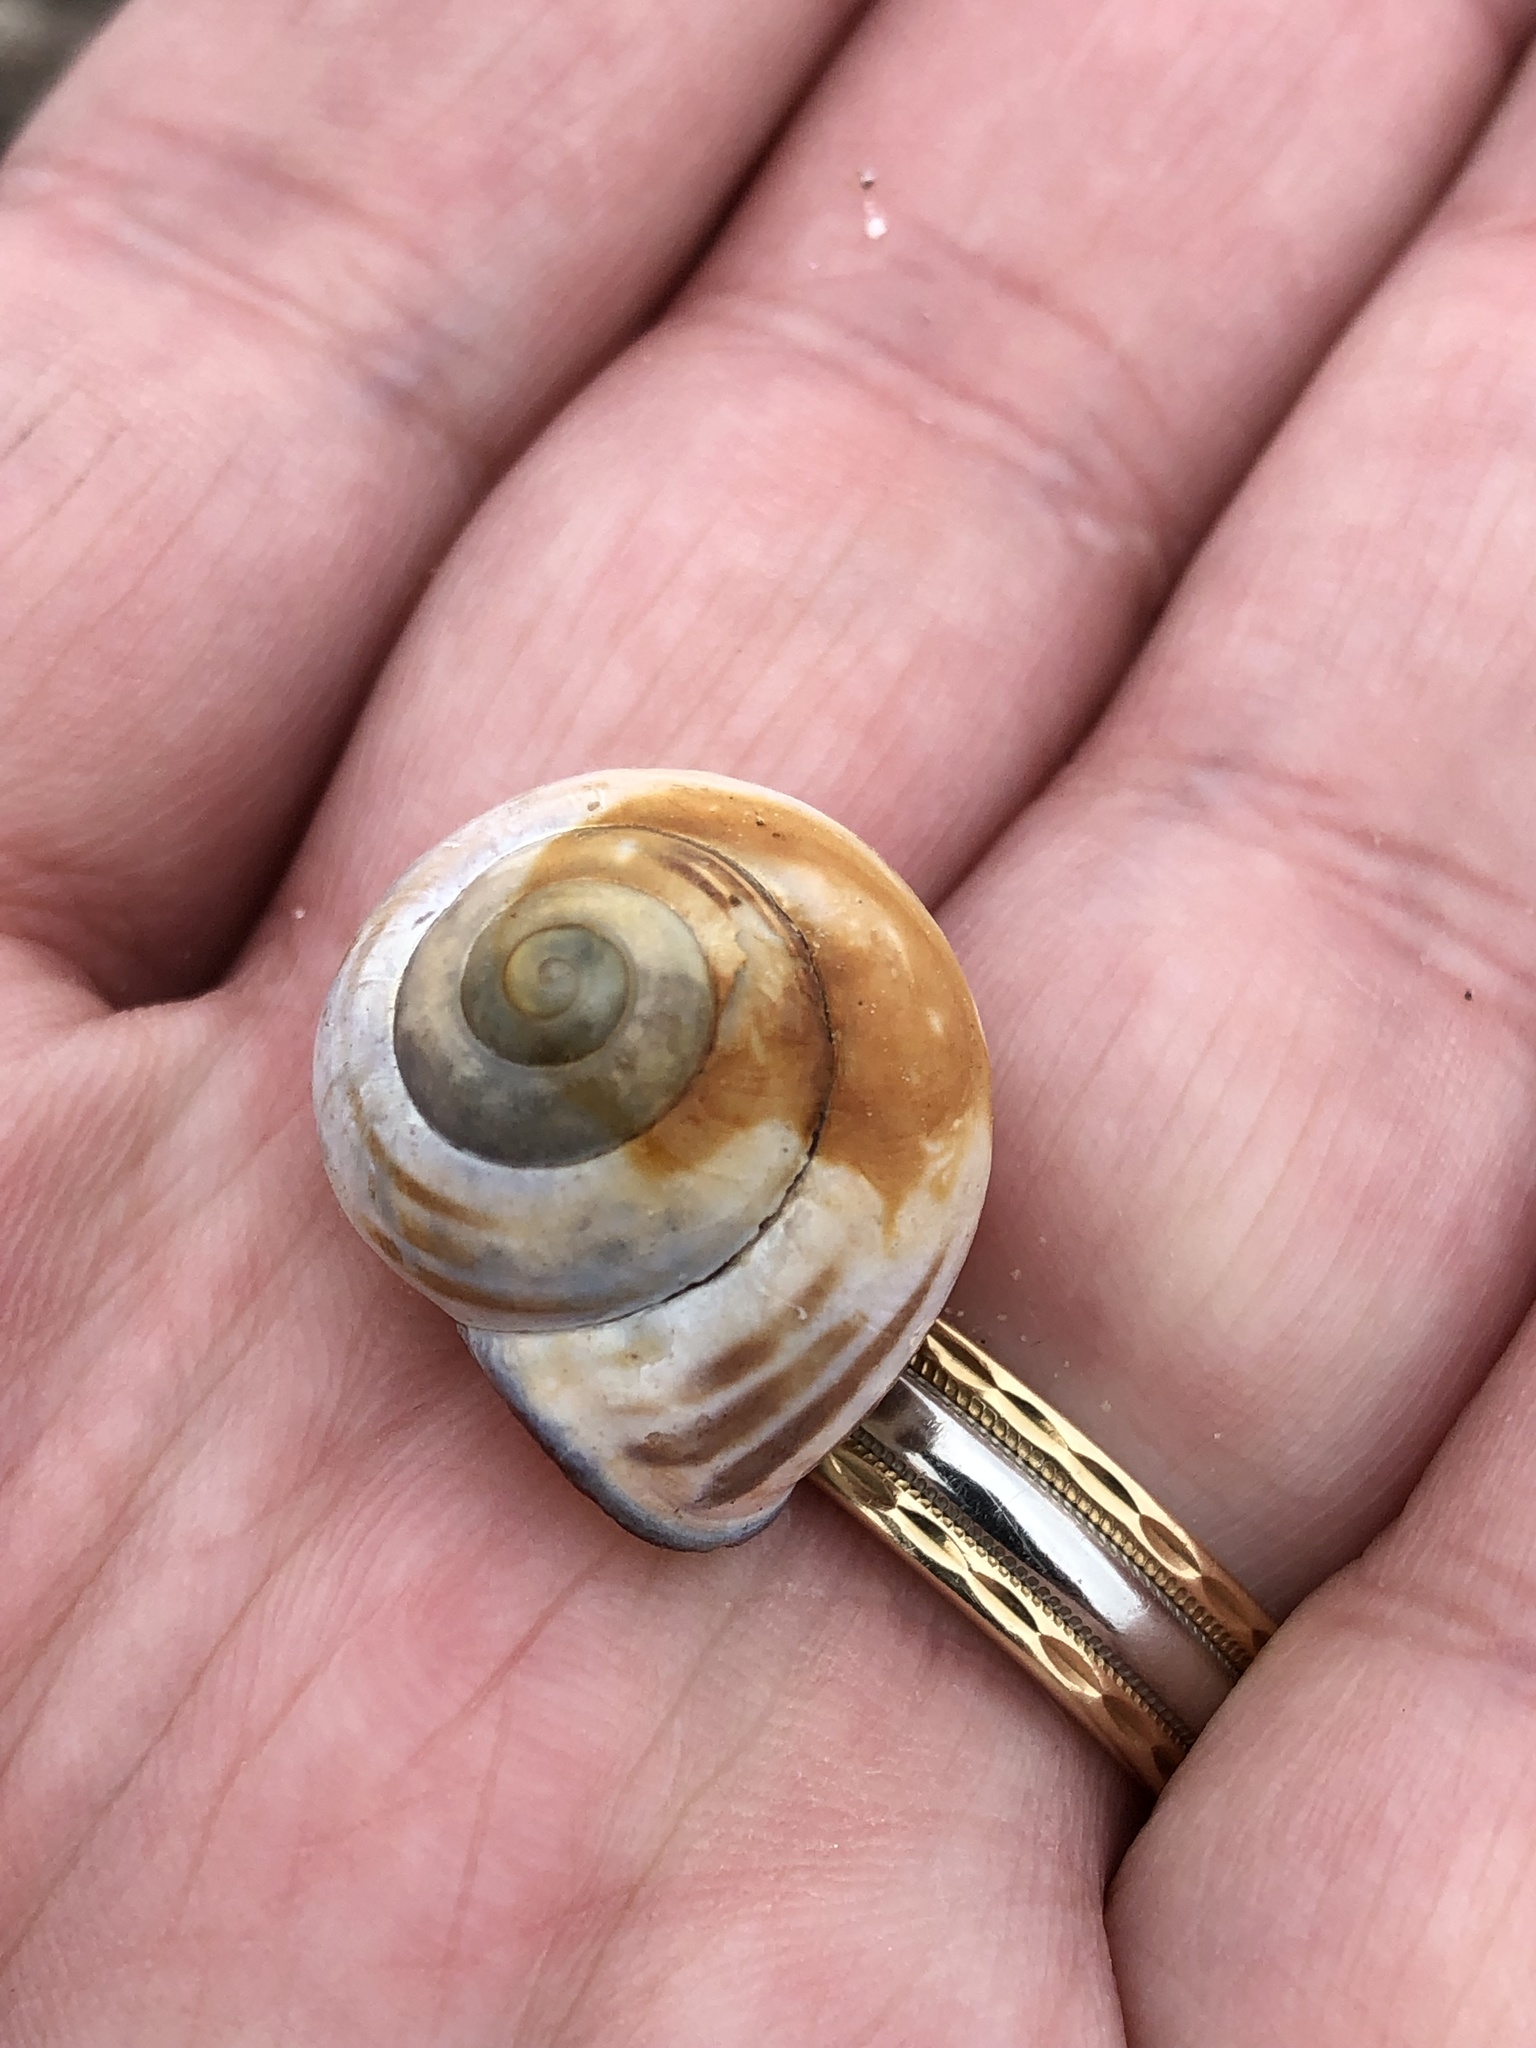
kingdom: Animalia
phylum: Mollusca
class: Gastropoda
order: Stylommatophora
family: Helicidae
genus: Cepaea
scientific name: Cepaea nemoralis
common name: Grovesnail
